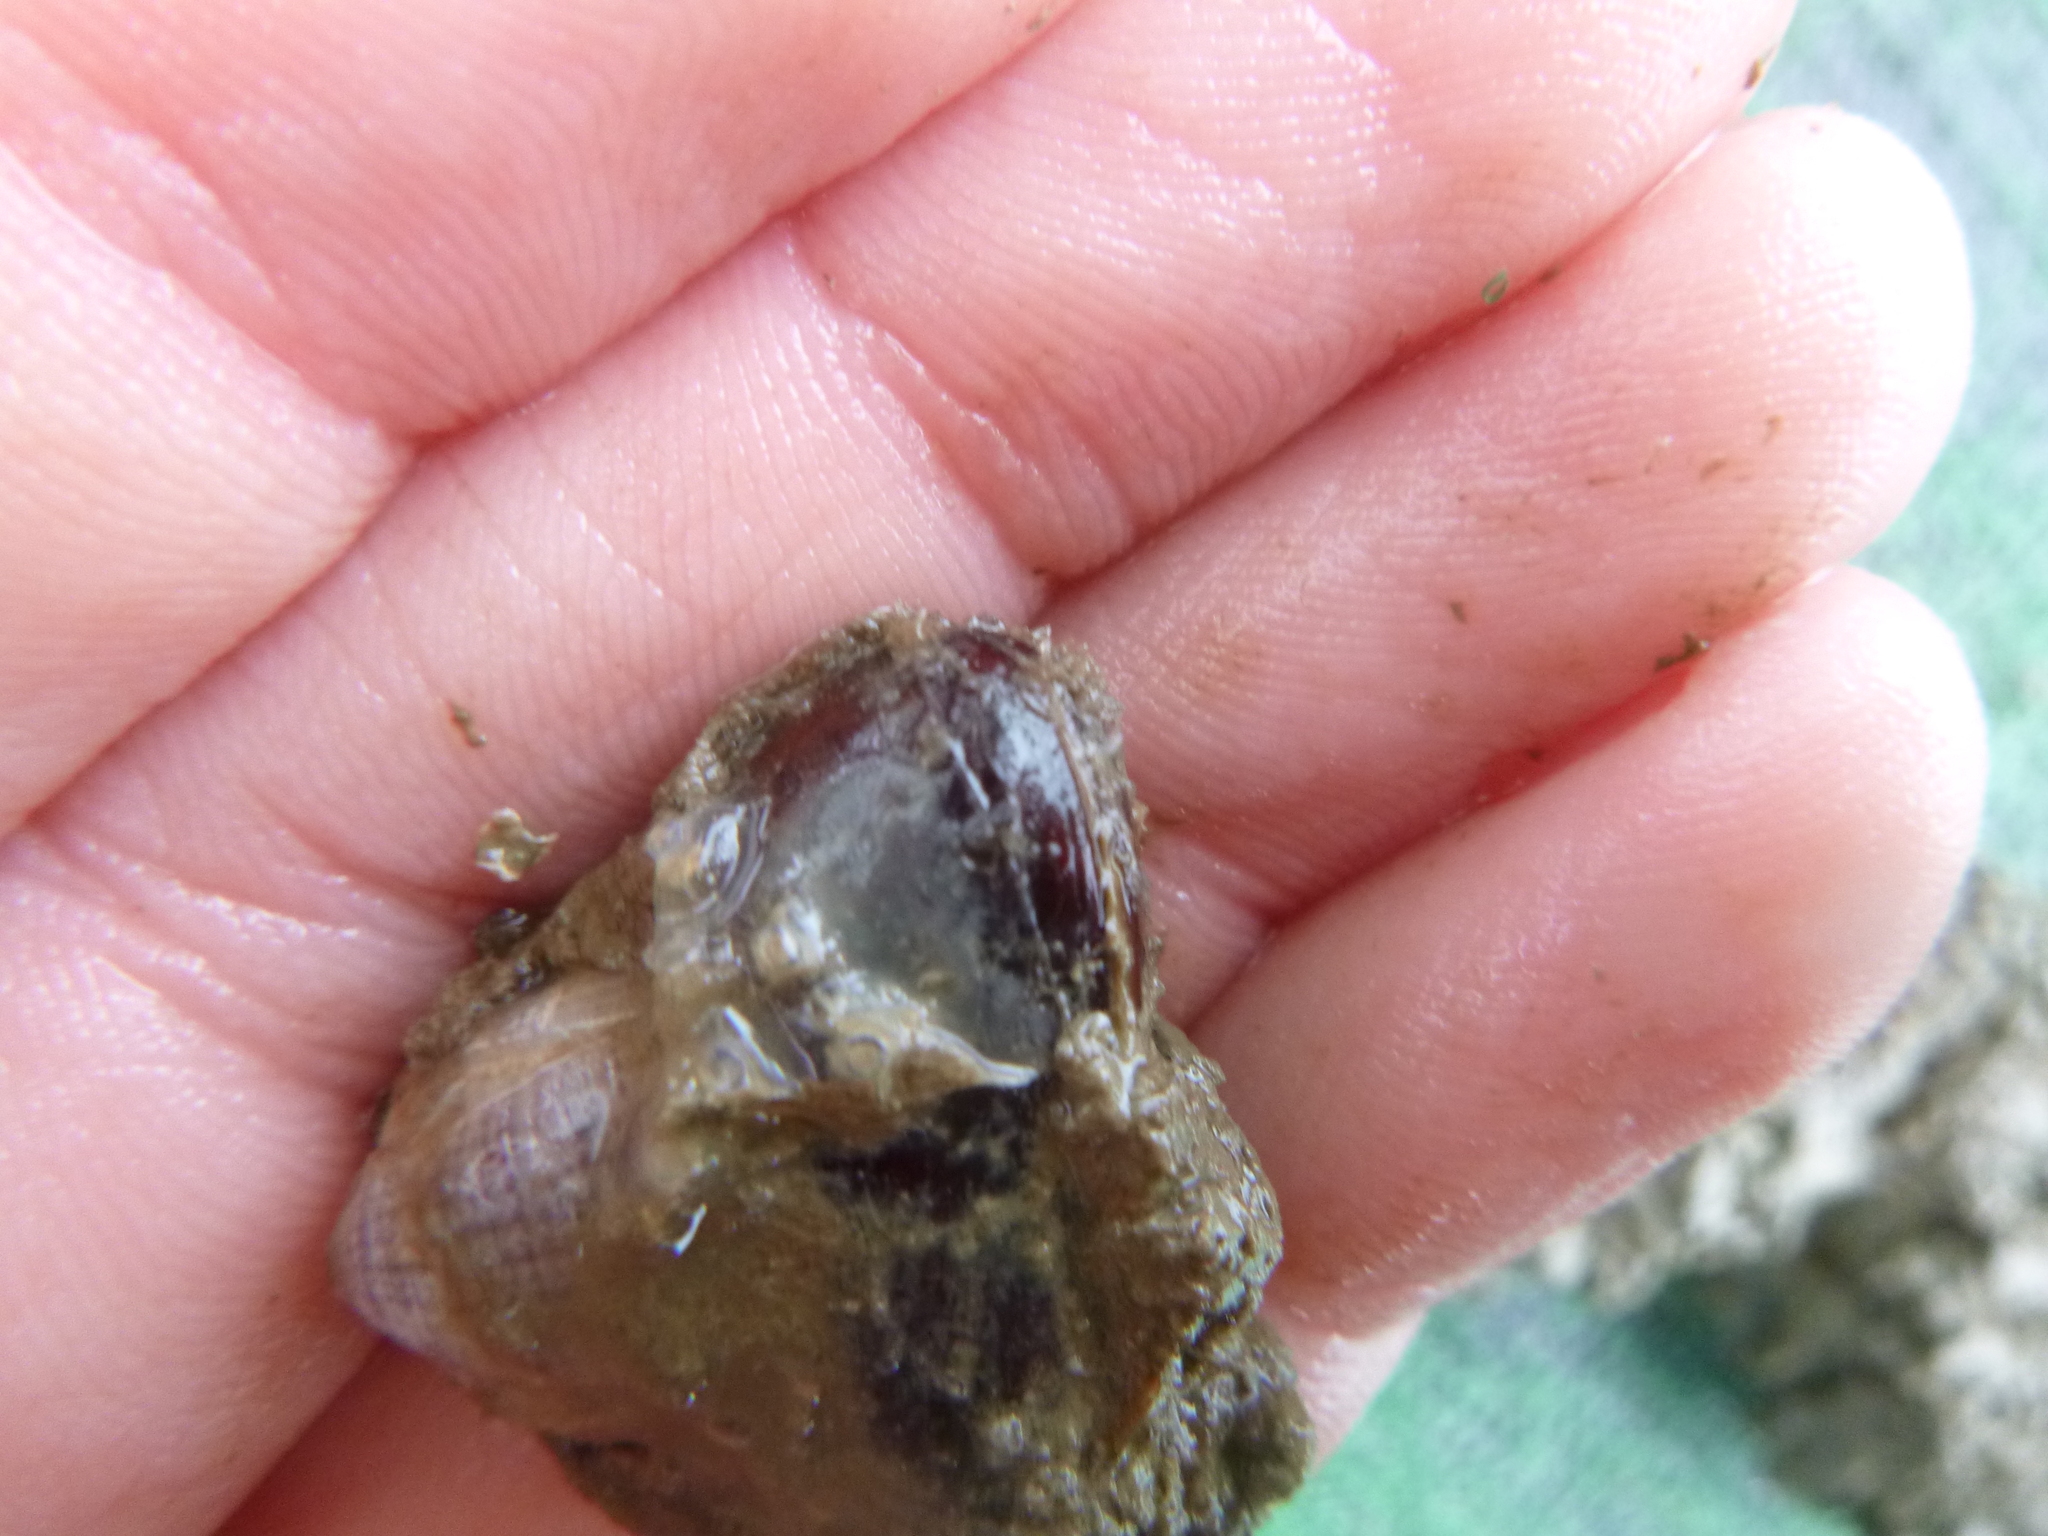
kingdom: Animalia
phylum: Mollusca
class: Bivalvia
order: Mytilida
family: Mytilidae
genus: Xenostrobus
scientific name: Xenostrobus securis
